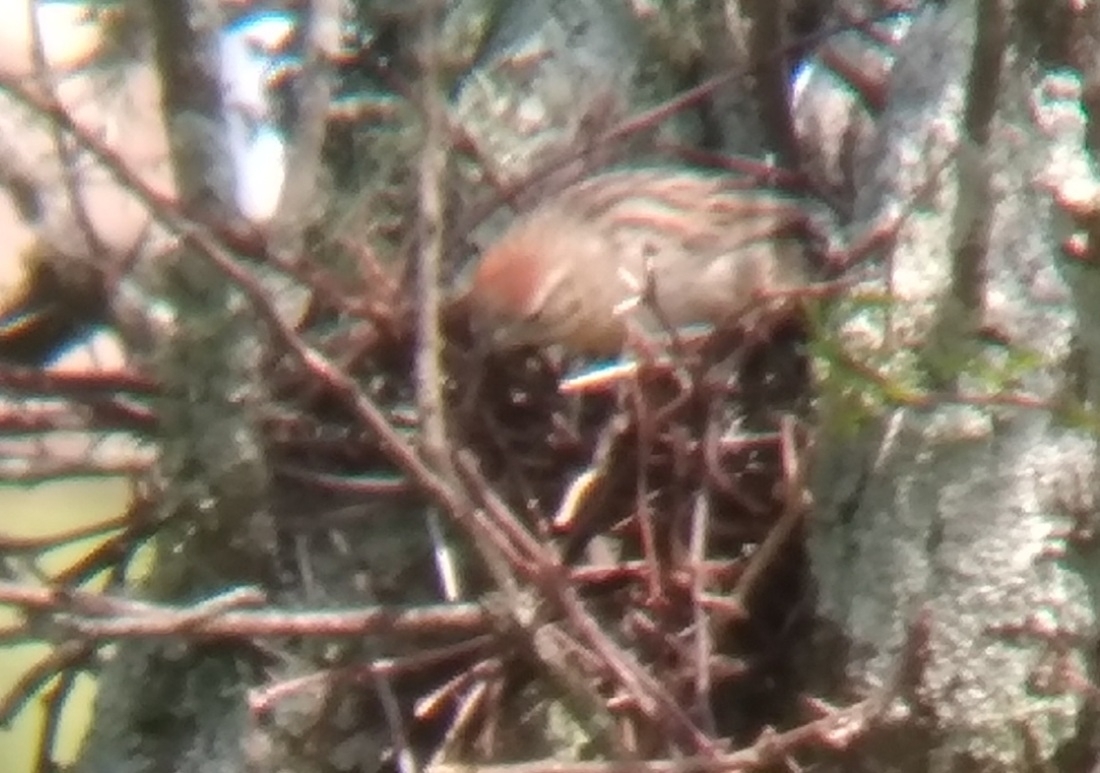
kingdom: Animalia
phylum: Chordata
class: Aves
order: Passeriformes
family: Furnariidae
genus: Schoeniophylax
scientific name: Schoeniophylax phryganophilus
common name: Chotoy spinetail
